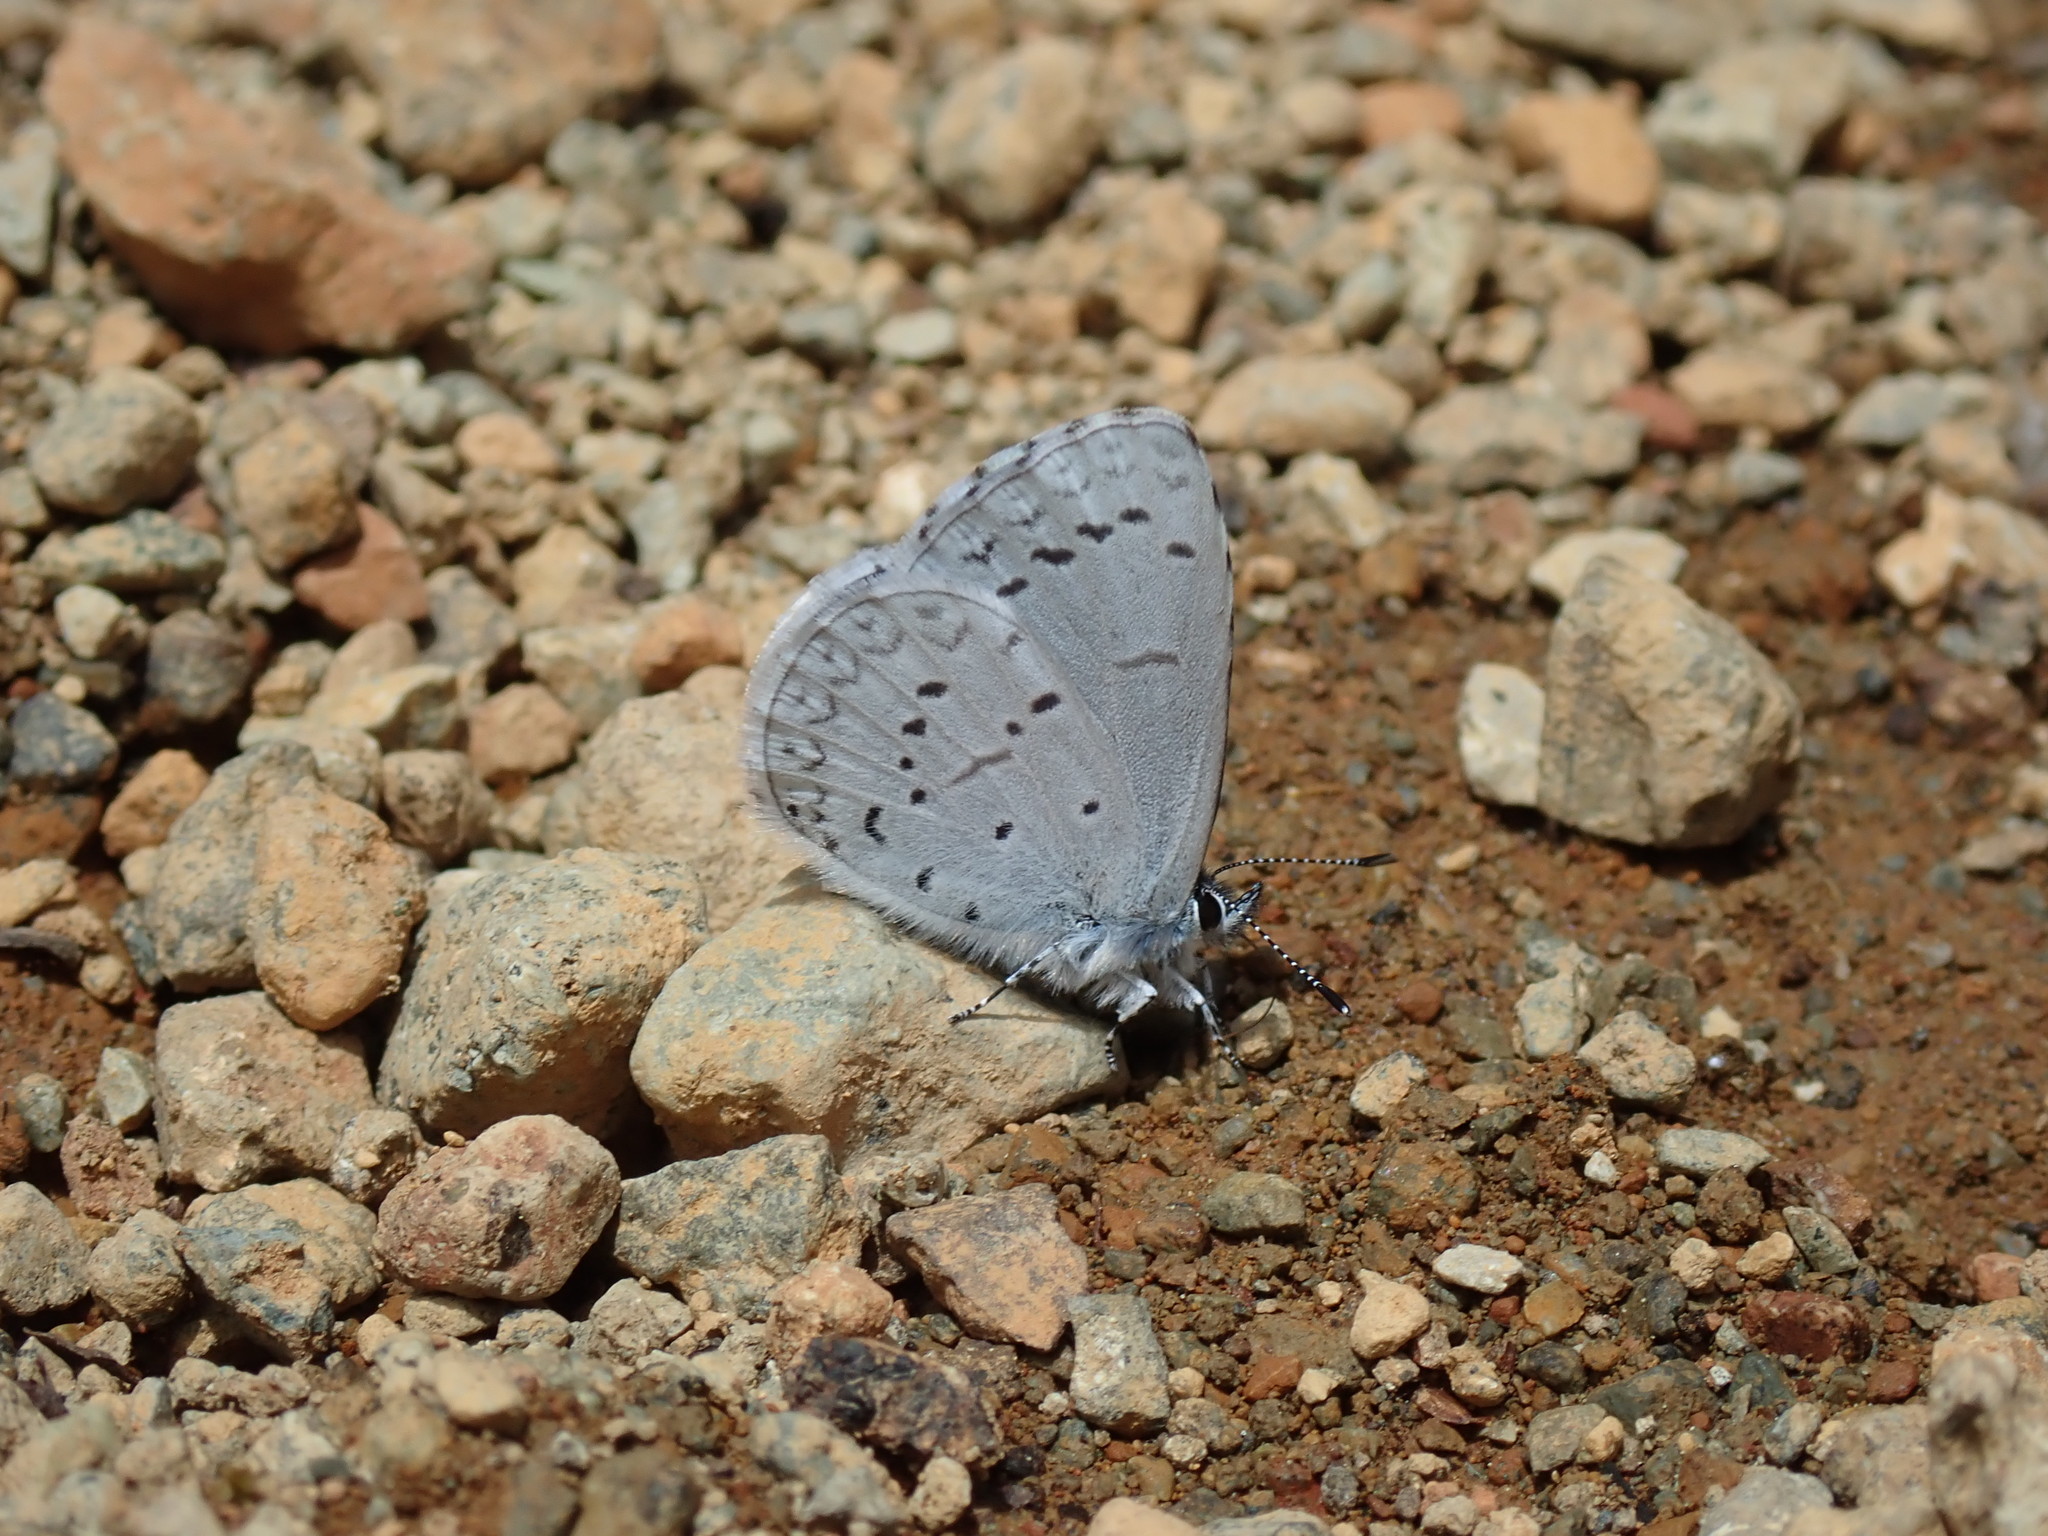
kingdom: Animalia
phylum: Arthropoda
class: Insecta
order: Lepidoptera
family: Lycaenidae
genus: Celastrina
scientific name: Celastrina ladon
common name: Spring azure
